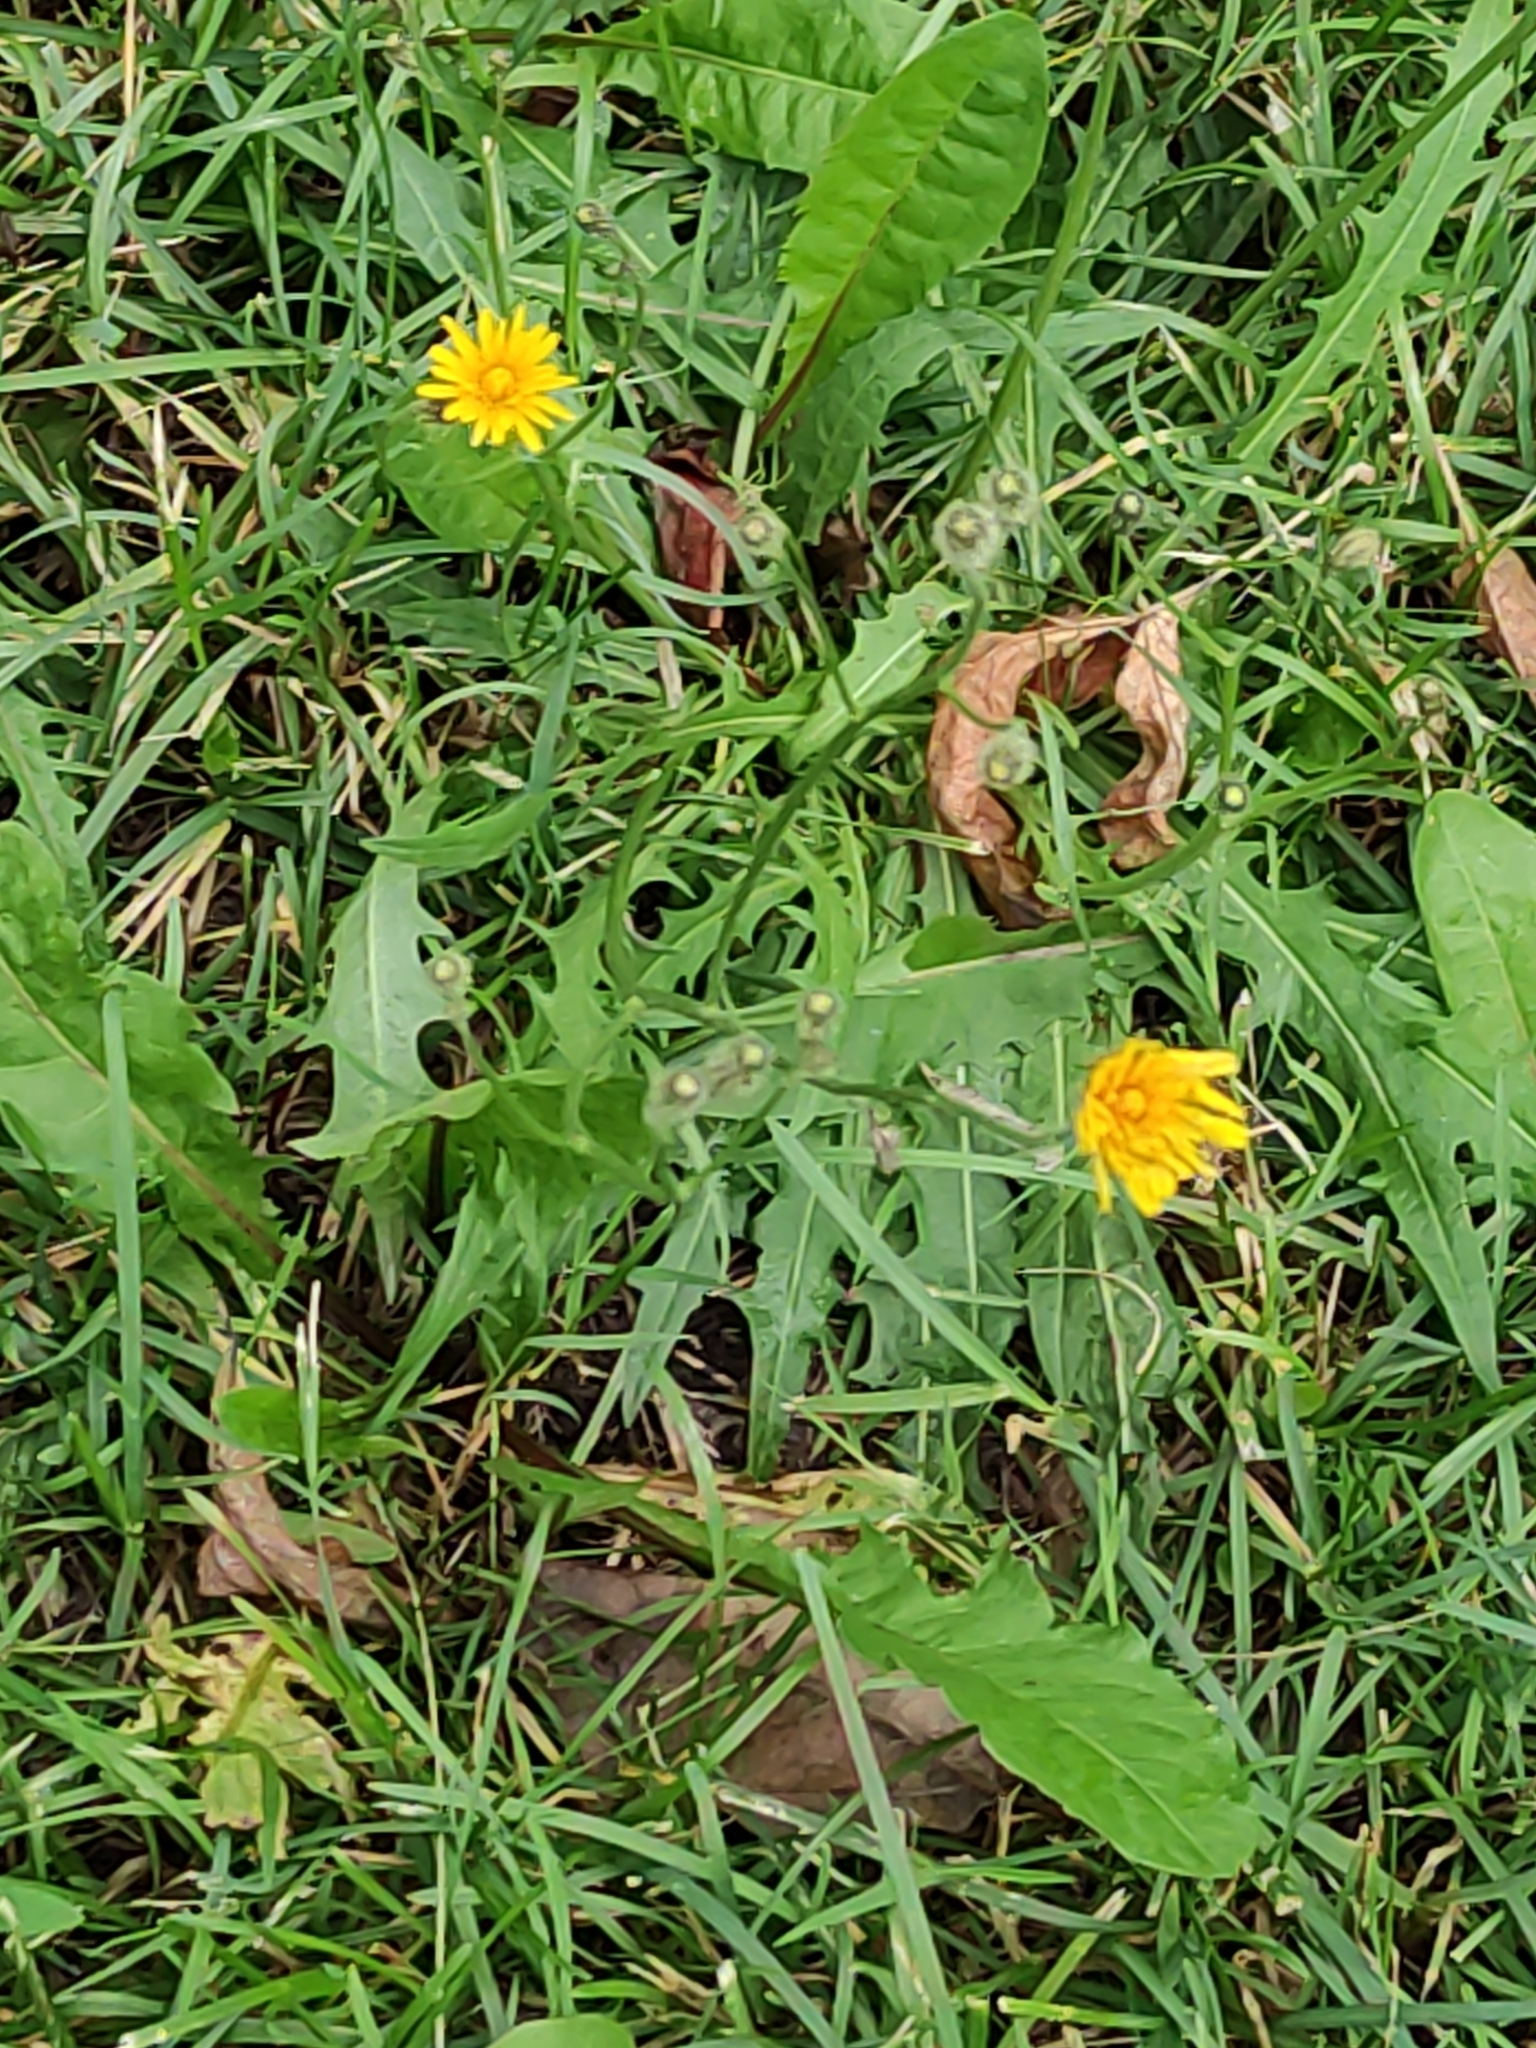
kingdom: Plantae
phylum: Tracheophyta
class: Magnoliopsida
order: Asterales
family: Asteraceae
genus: Scorzoneroides
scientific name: Scorzoneroides autumnalis
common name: Autumn hawkbit
